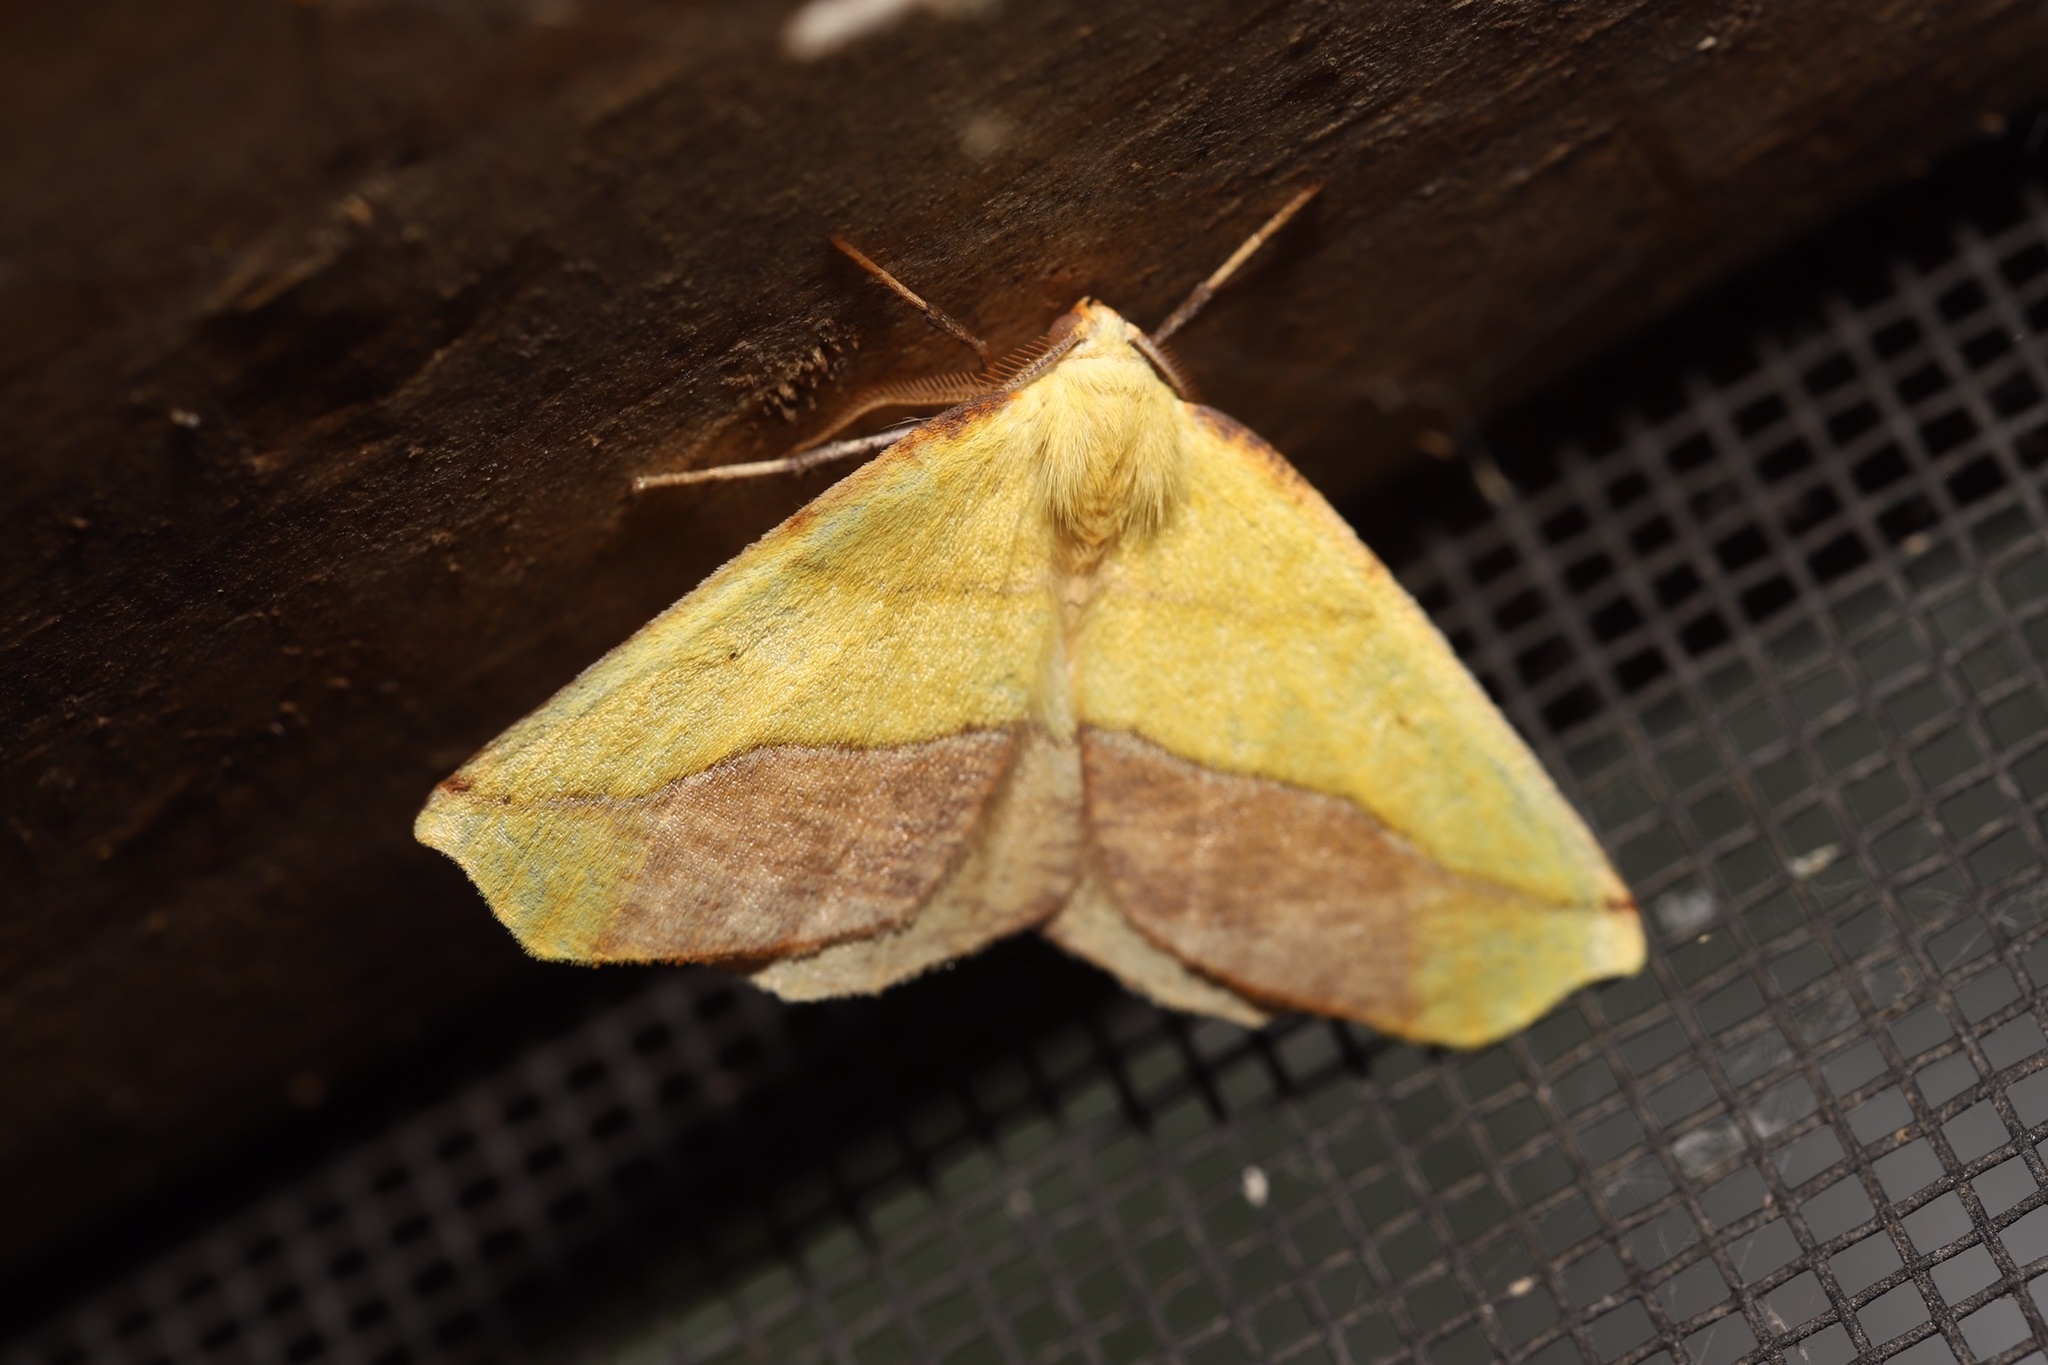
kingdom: Animalia
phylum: Arthropoda
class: Insecta
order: Lepidoptera
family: Geometridae
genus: Sicya
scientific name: Sicya macularia
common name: Sharp-lined yellow
